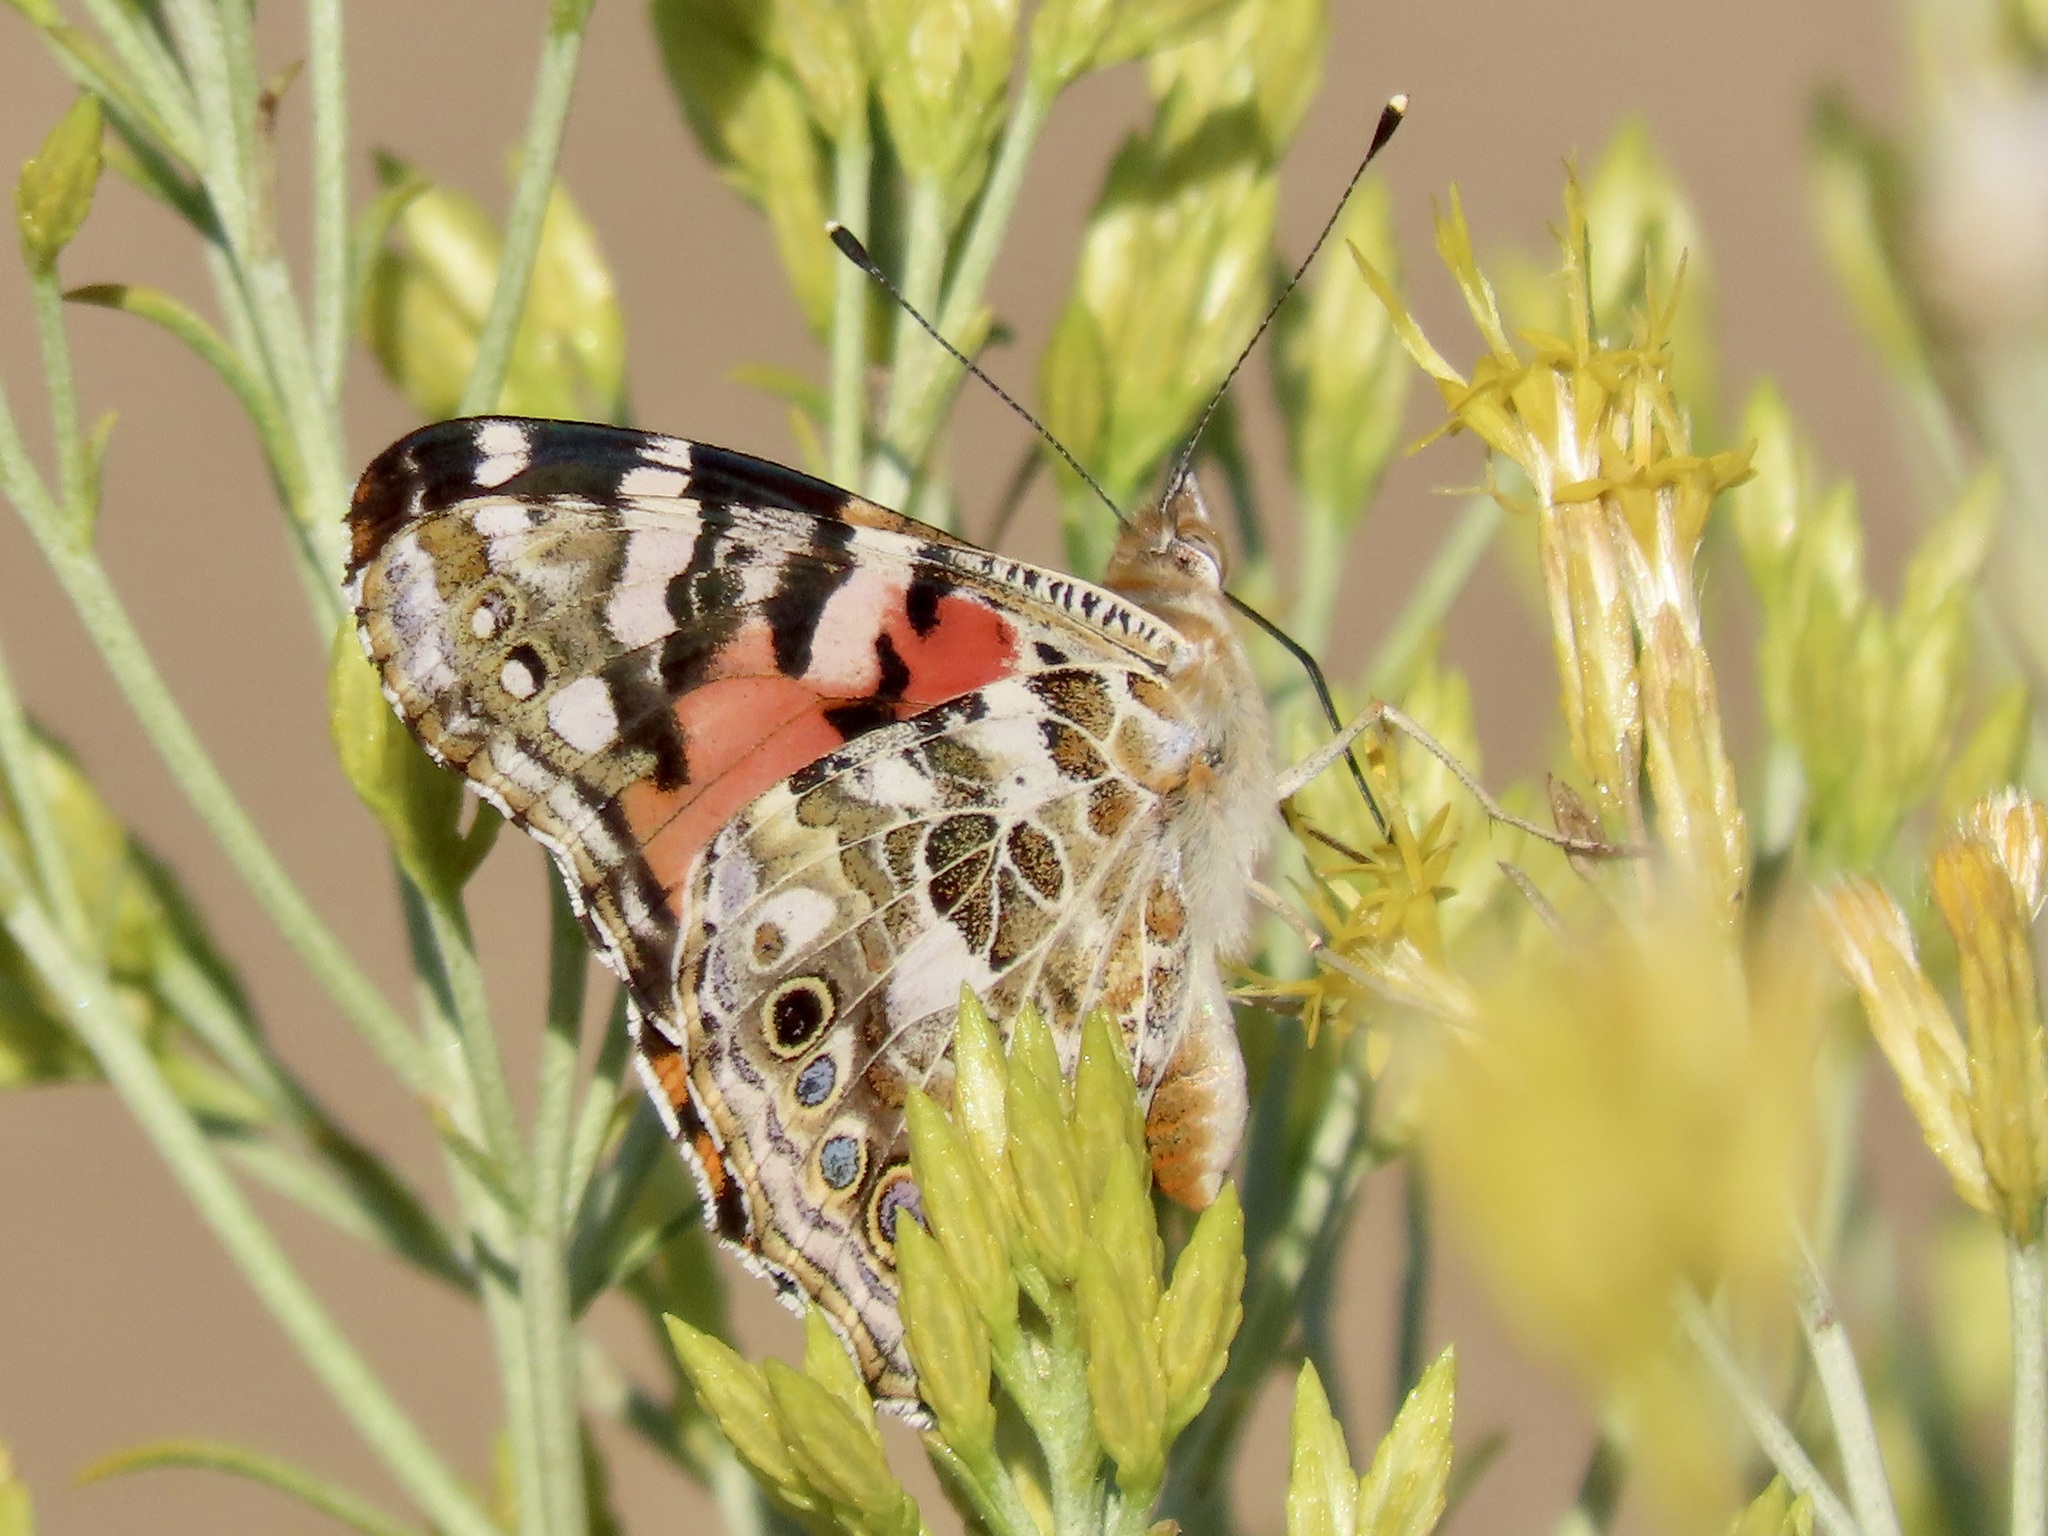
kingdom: Animalia
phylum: Arthropoda
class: Insecta
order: Lepidoptera
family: Nymphalidae
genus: Vanessa
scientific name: Vanessa cardui
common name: Painted lady
